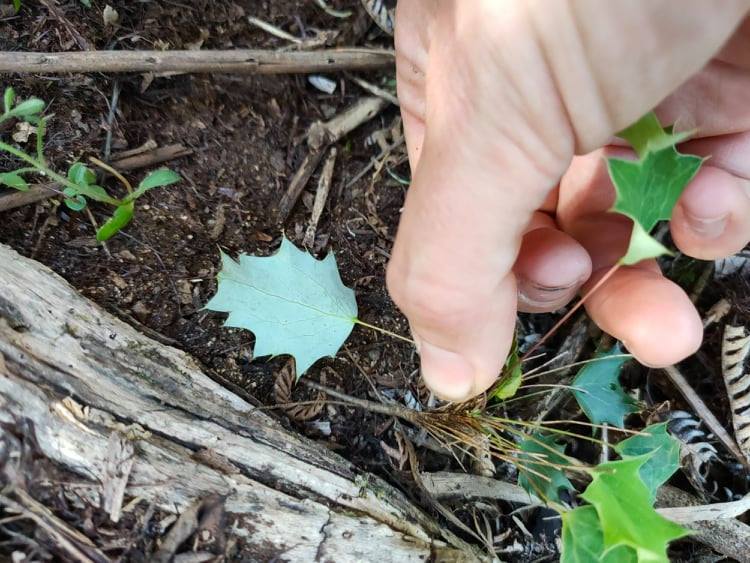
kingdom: Plantae
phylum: Tracheophyta
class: Magnoliopsida
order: Ranunculales
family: Berberidaceae
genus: Berberis
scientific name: Berberis glaucocarpa
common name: Great barberry
